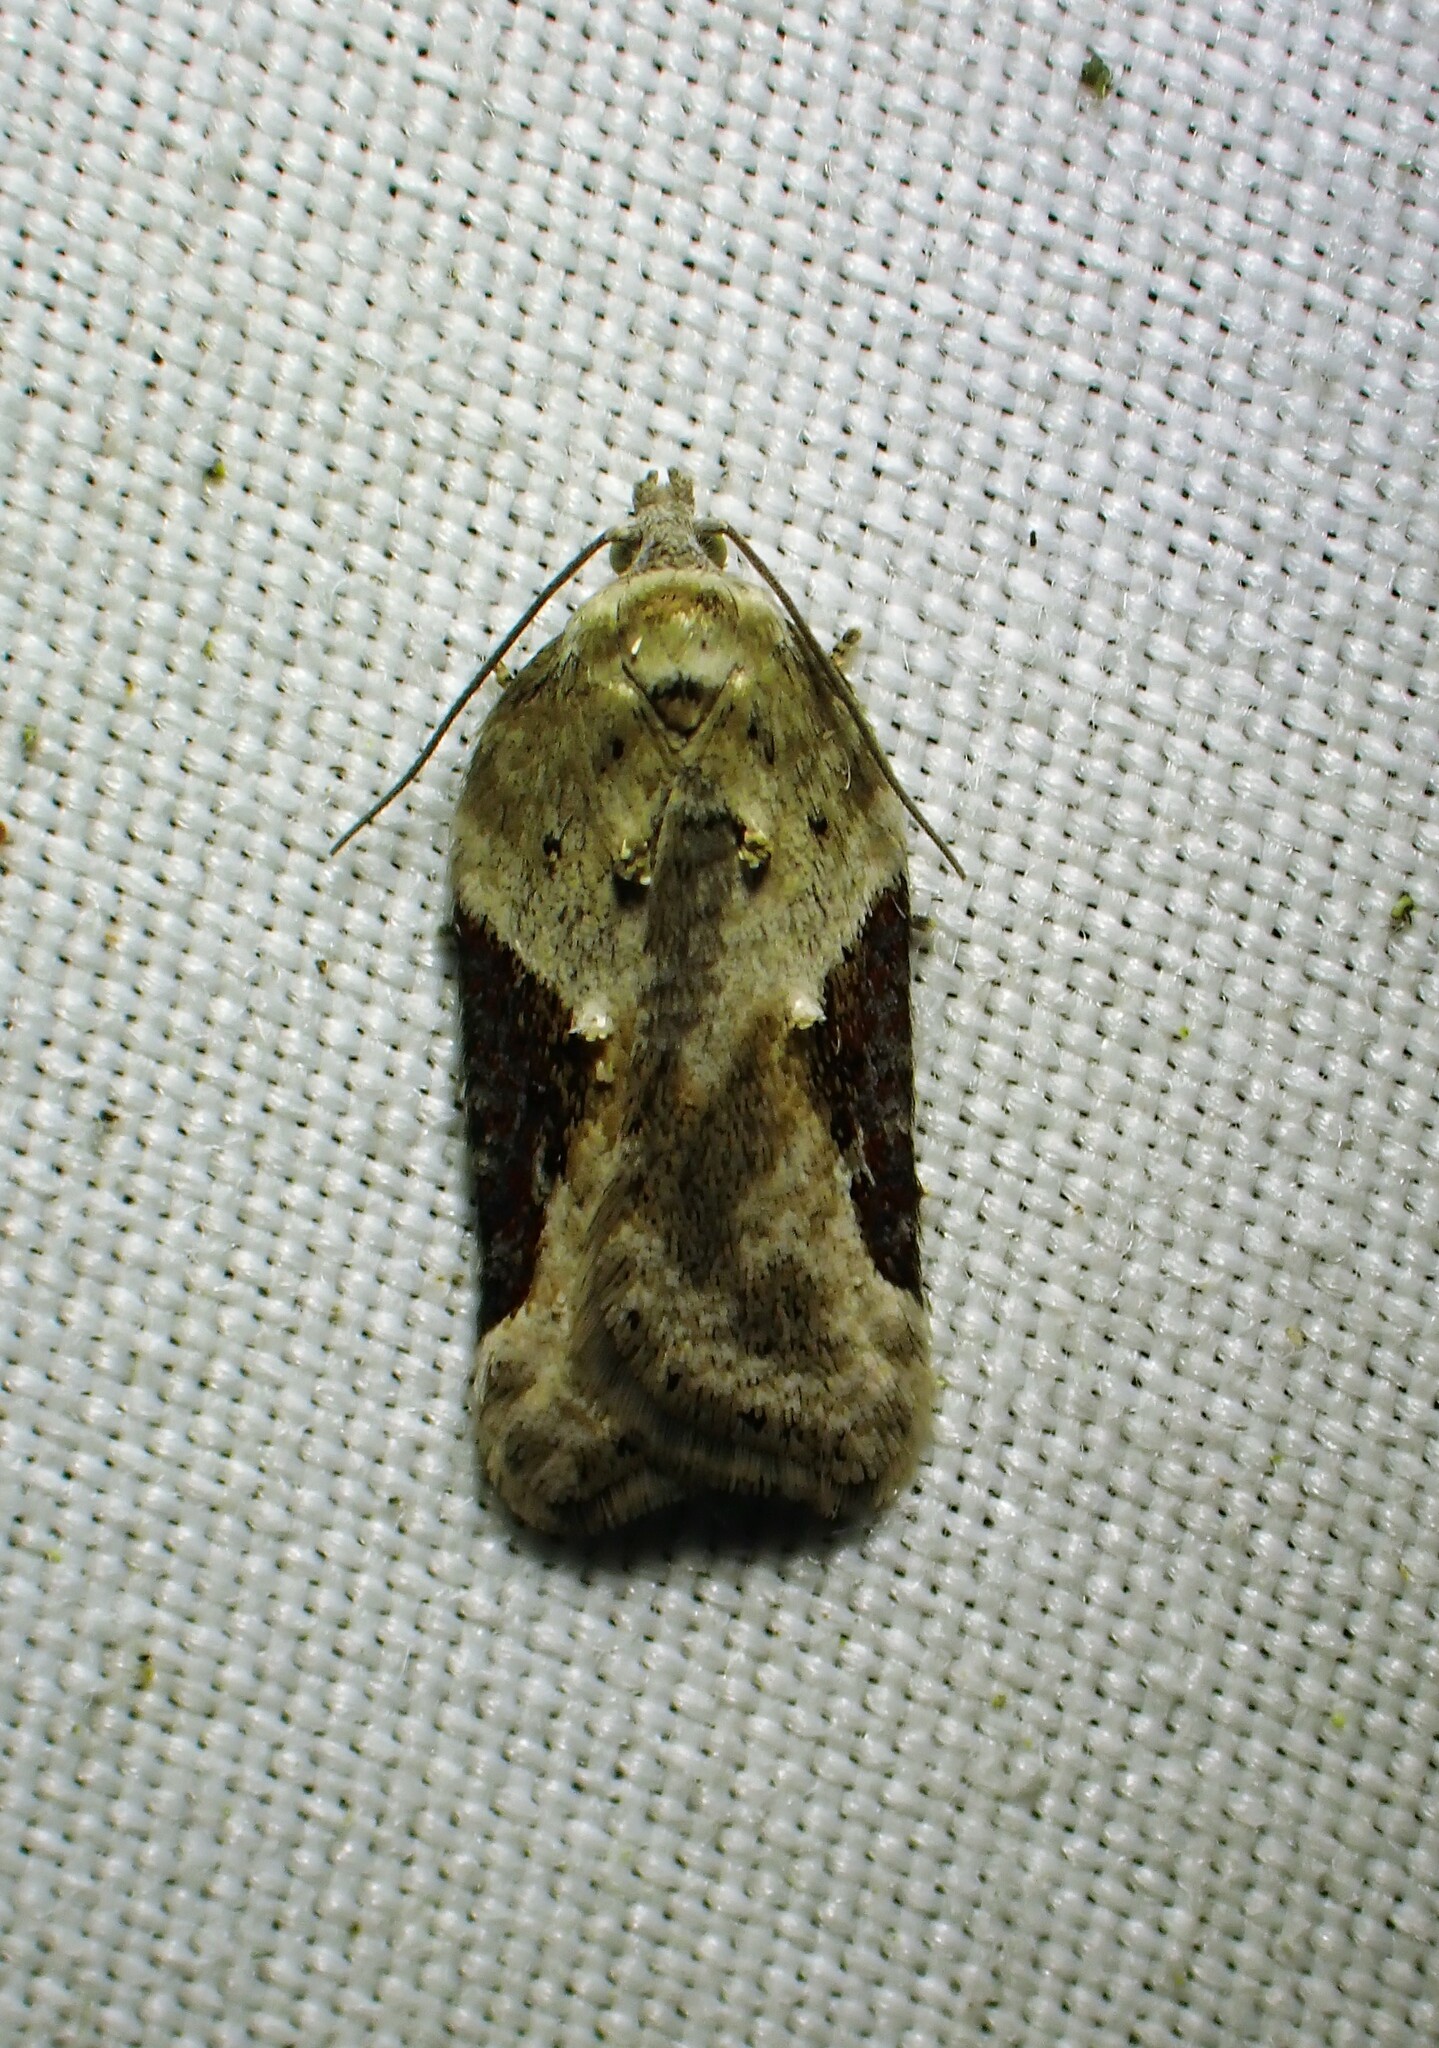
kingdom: Animalia
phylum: Arthropoda
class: Insecta
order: Lepidoptera
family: Tortricidae
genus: Acleris
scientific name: Acleris forbesana
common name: Forbes' acleris moth
